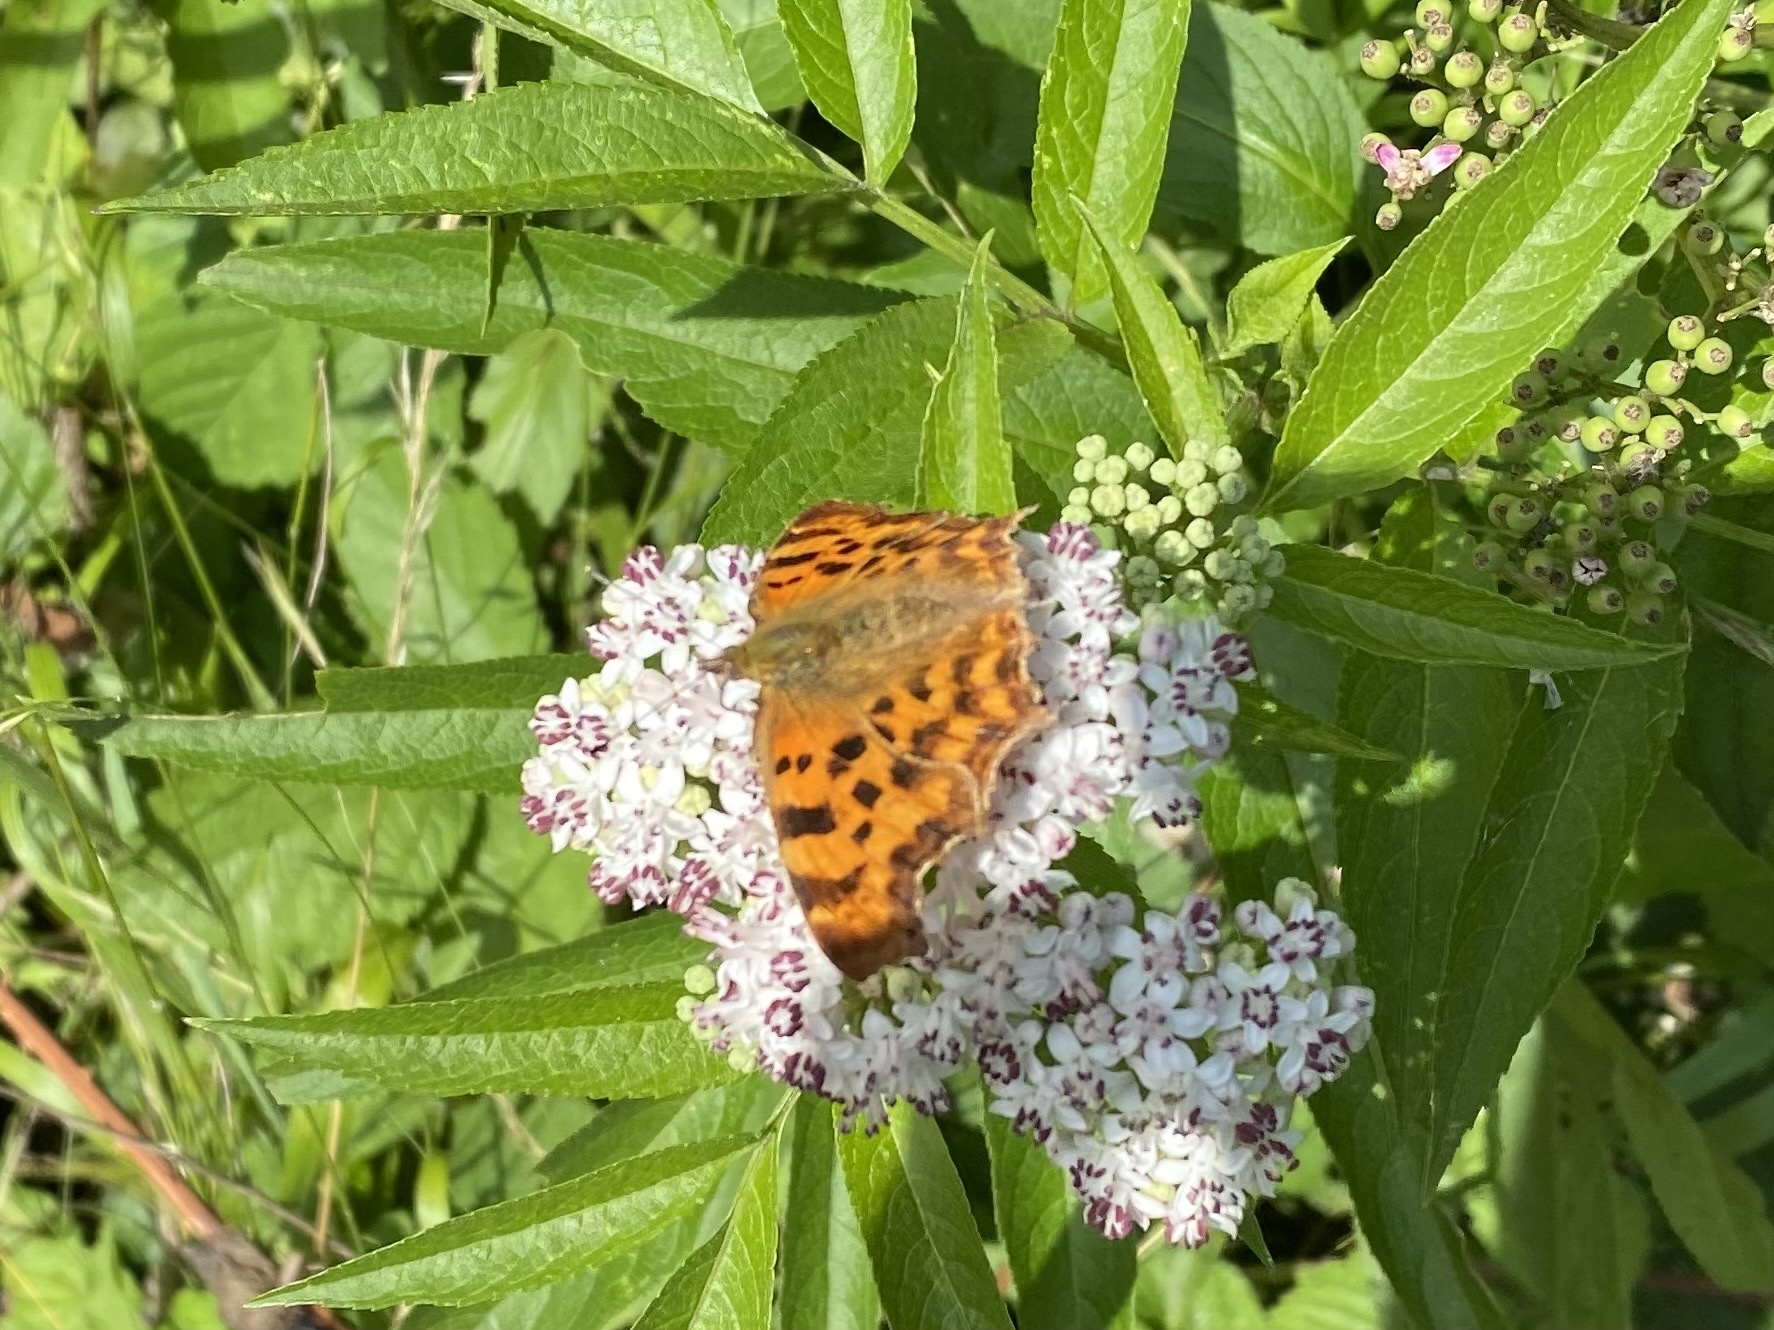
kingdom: Animalia
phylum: Arthropoda
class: Insecta
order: Lepidoptera
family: Nymphalidae
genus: Polygonia
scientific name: Polygonia c-album
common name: Comma
